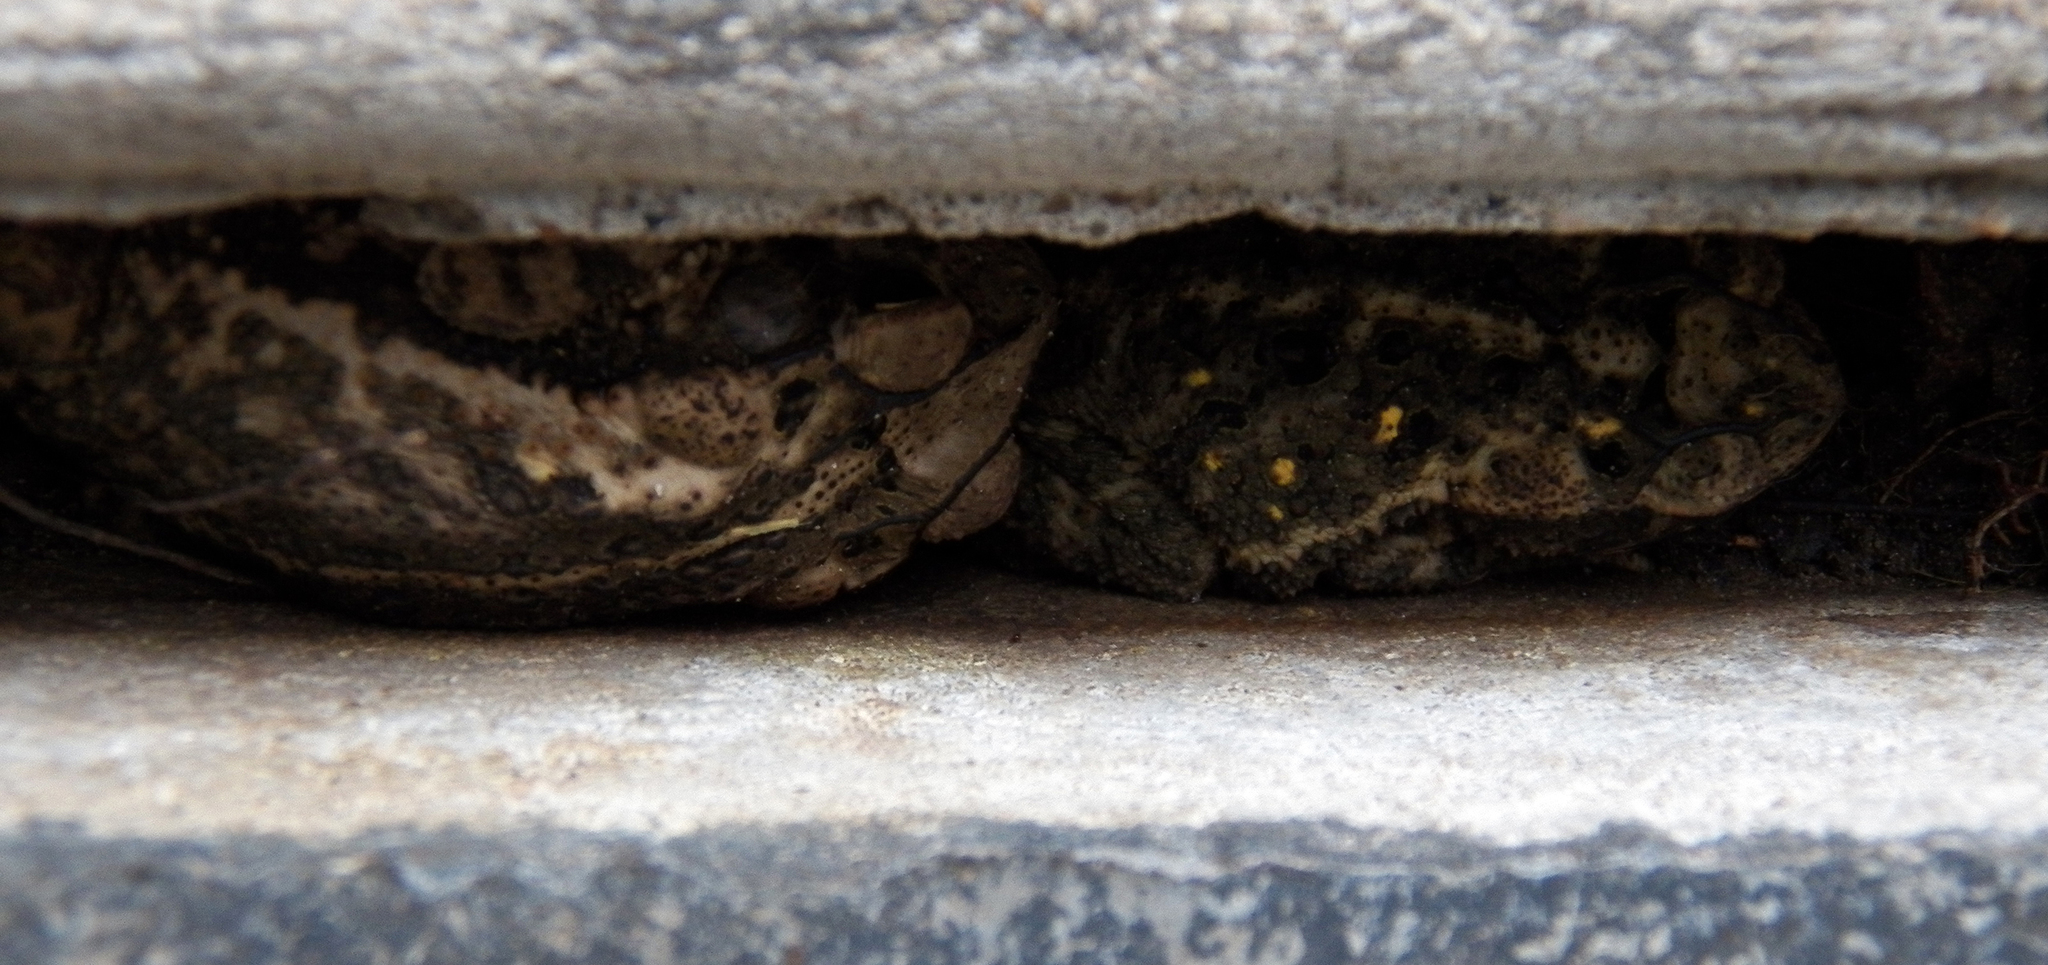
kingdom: Animalia
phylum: Chordata
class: Amphibia
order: Anura
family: Bufonidae
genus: Incilius
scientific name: Incilius nebulifer
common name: Gulf coast toad
